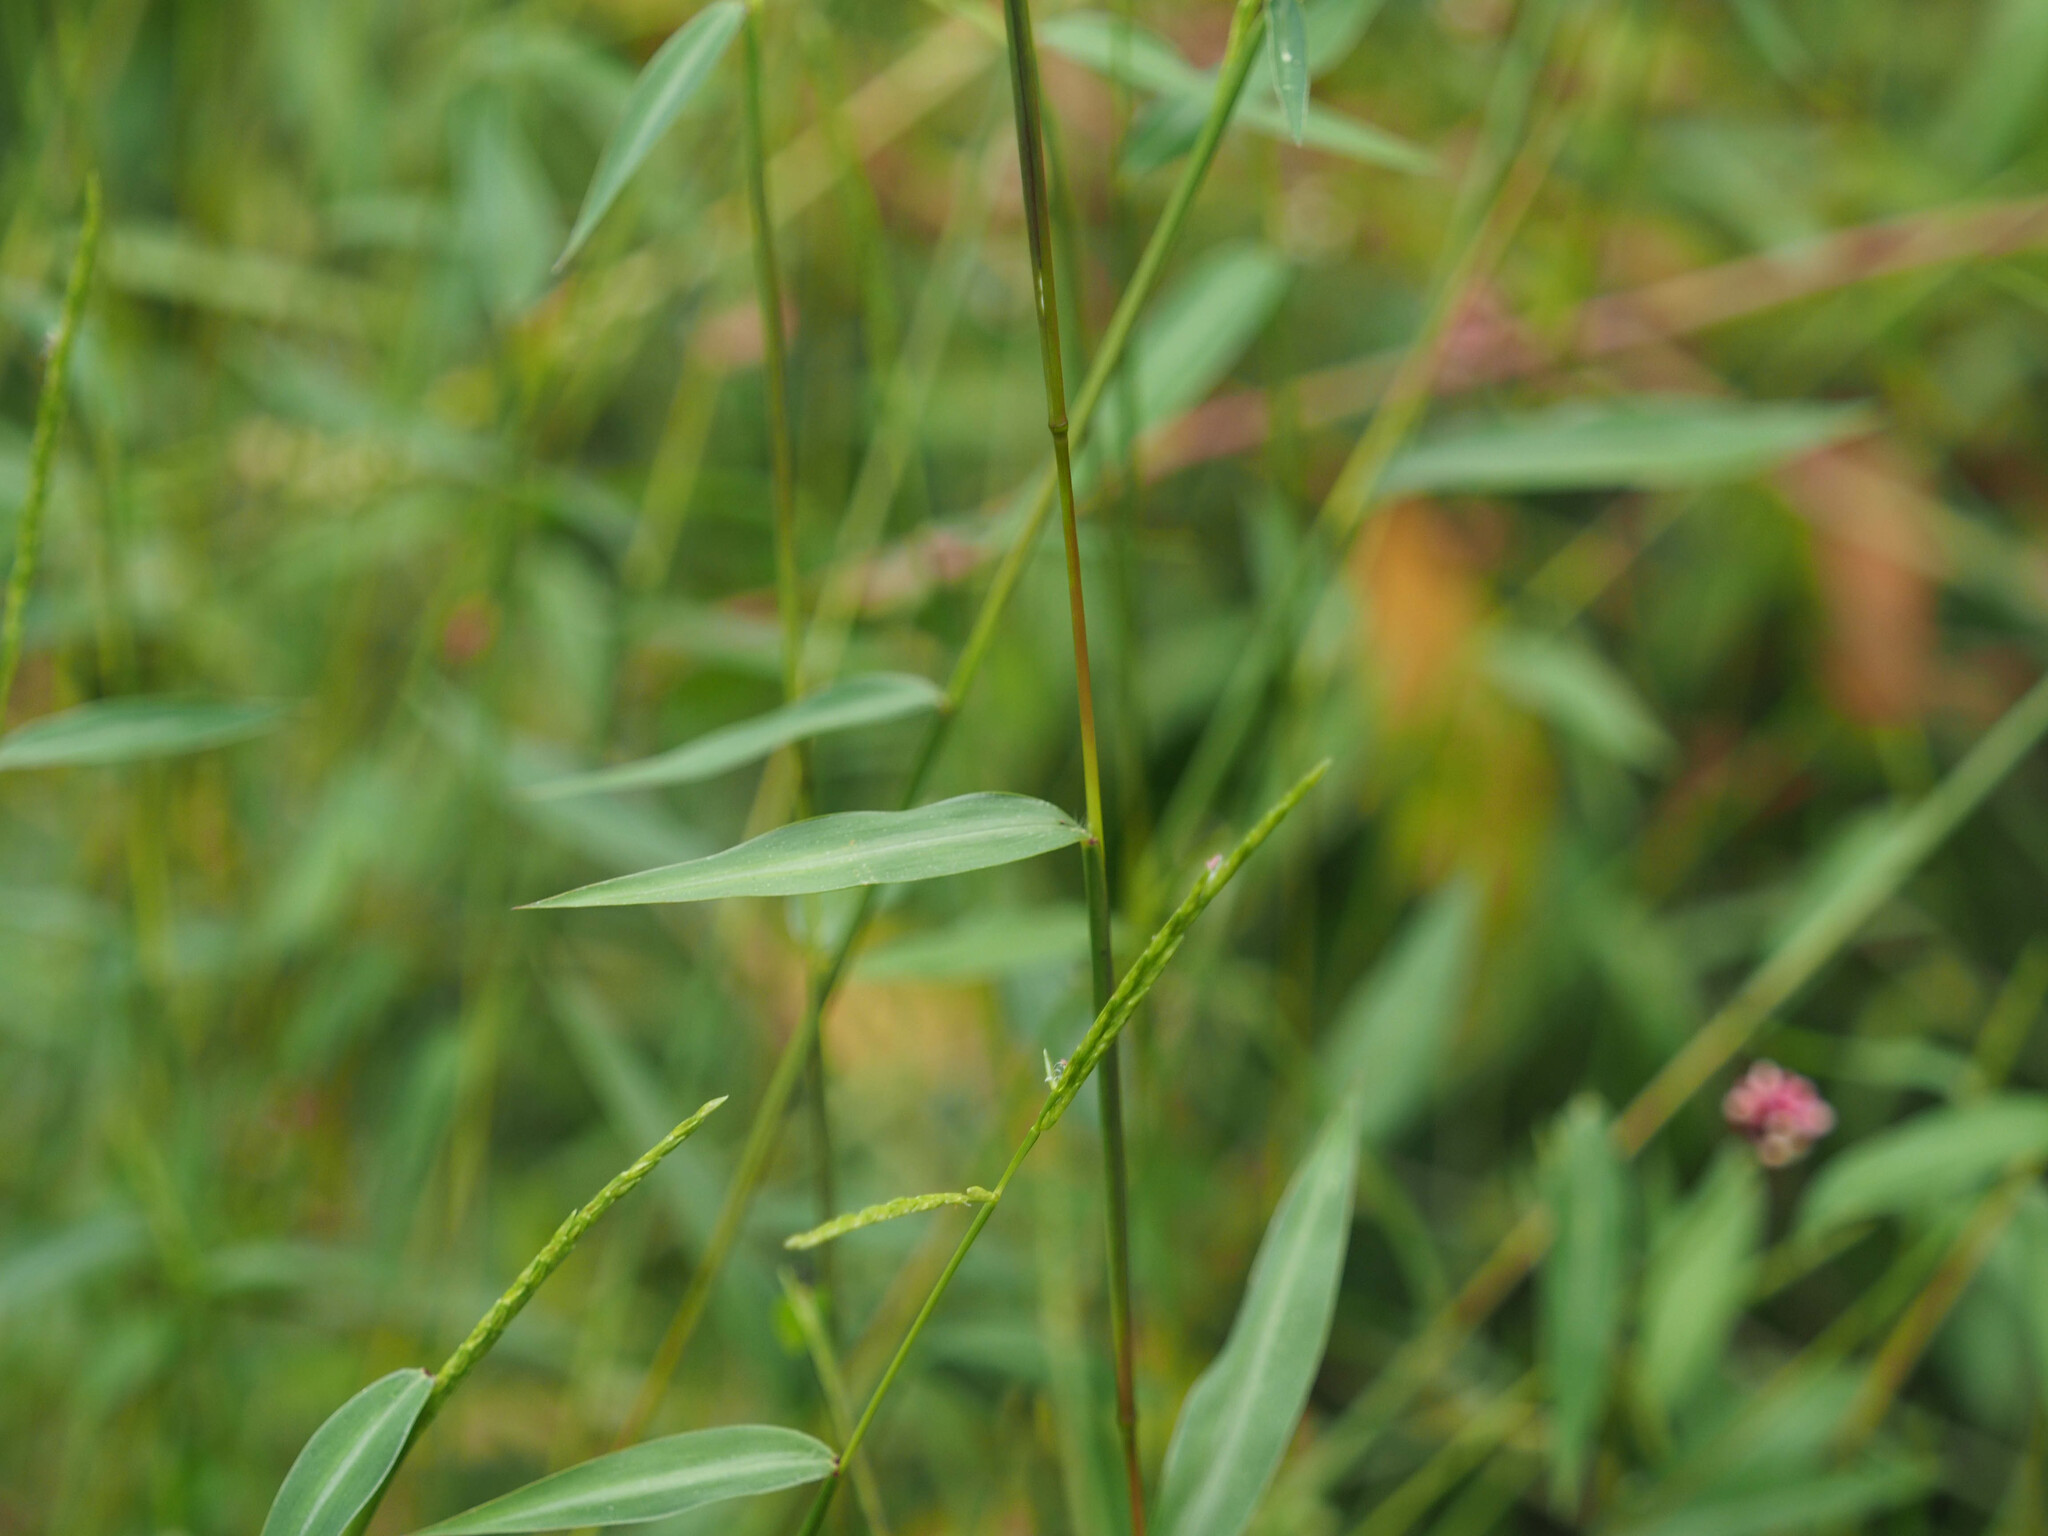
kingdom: Plantae
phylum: Tracheophyta
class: Liliopsida
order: Poales
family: Poaceae
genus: Microstegium
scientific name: Microstegium vimineum
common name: Japanese stiltgrass
